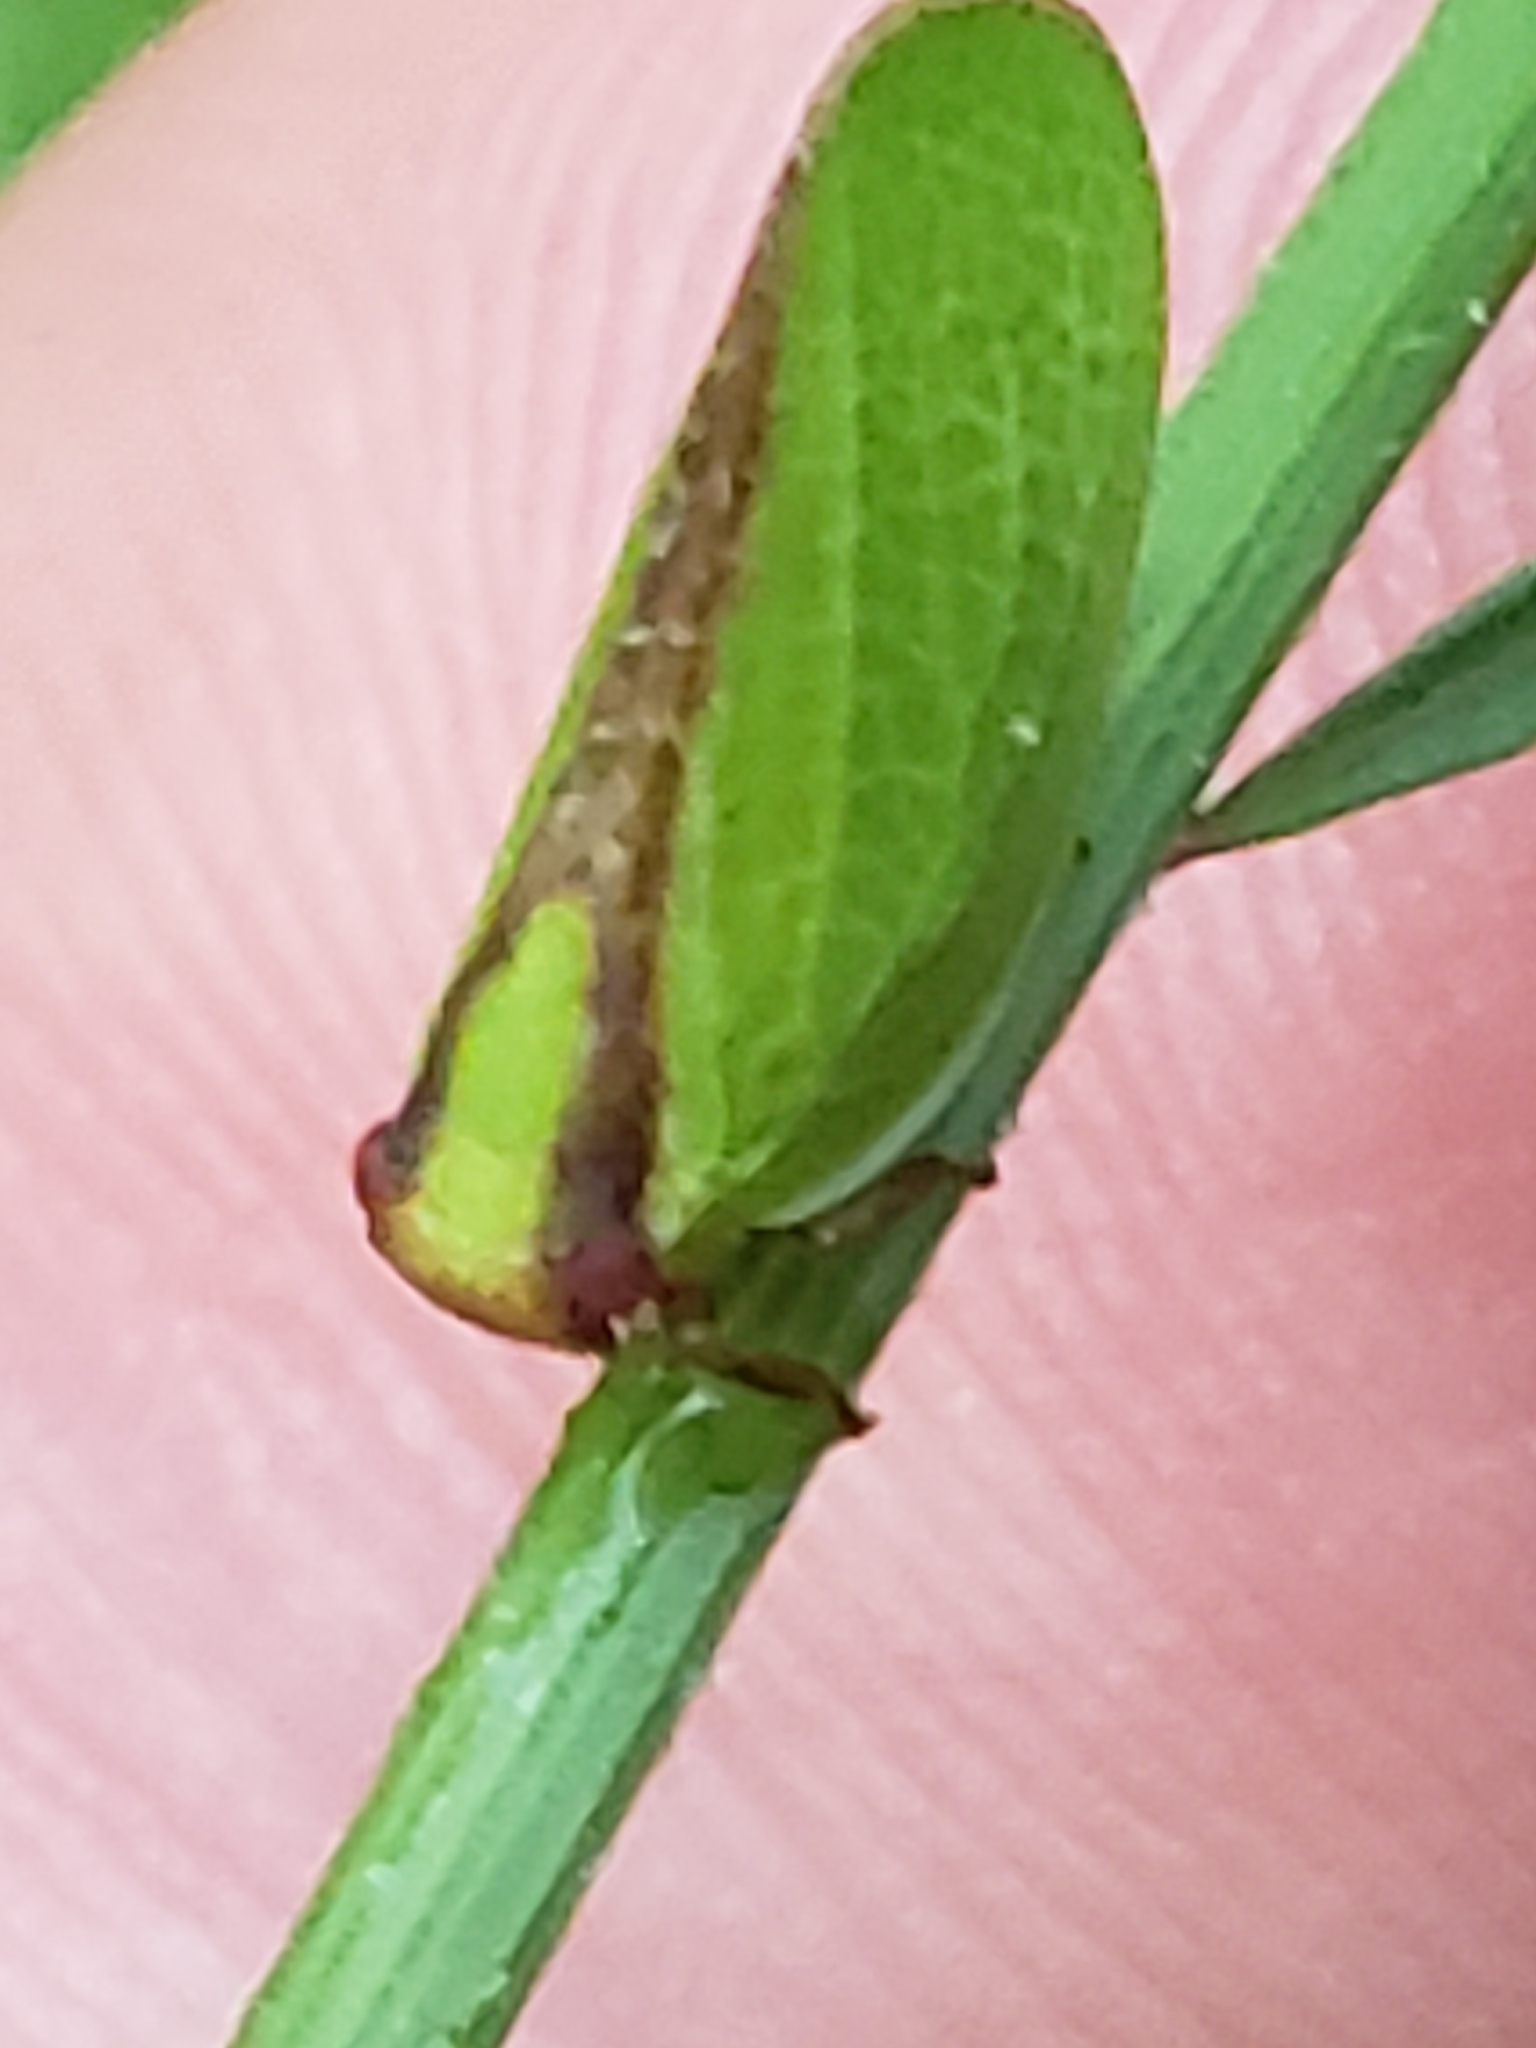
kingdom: Animalia
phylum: Arthropoda
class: Insecta
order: Hemiptera
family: Acanaloniidae
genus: Acanalonia
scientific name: Acanalonia bivittata
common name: Two-striped planthopper
